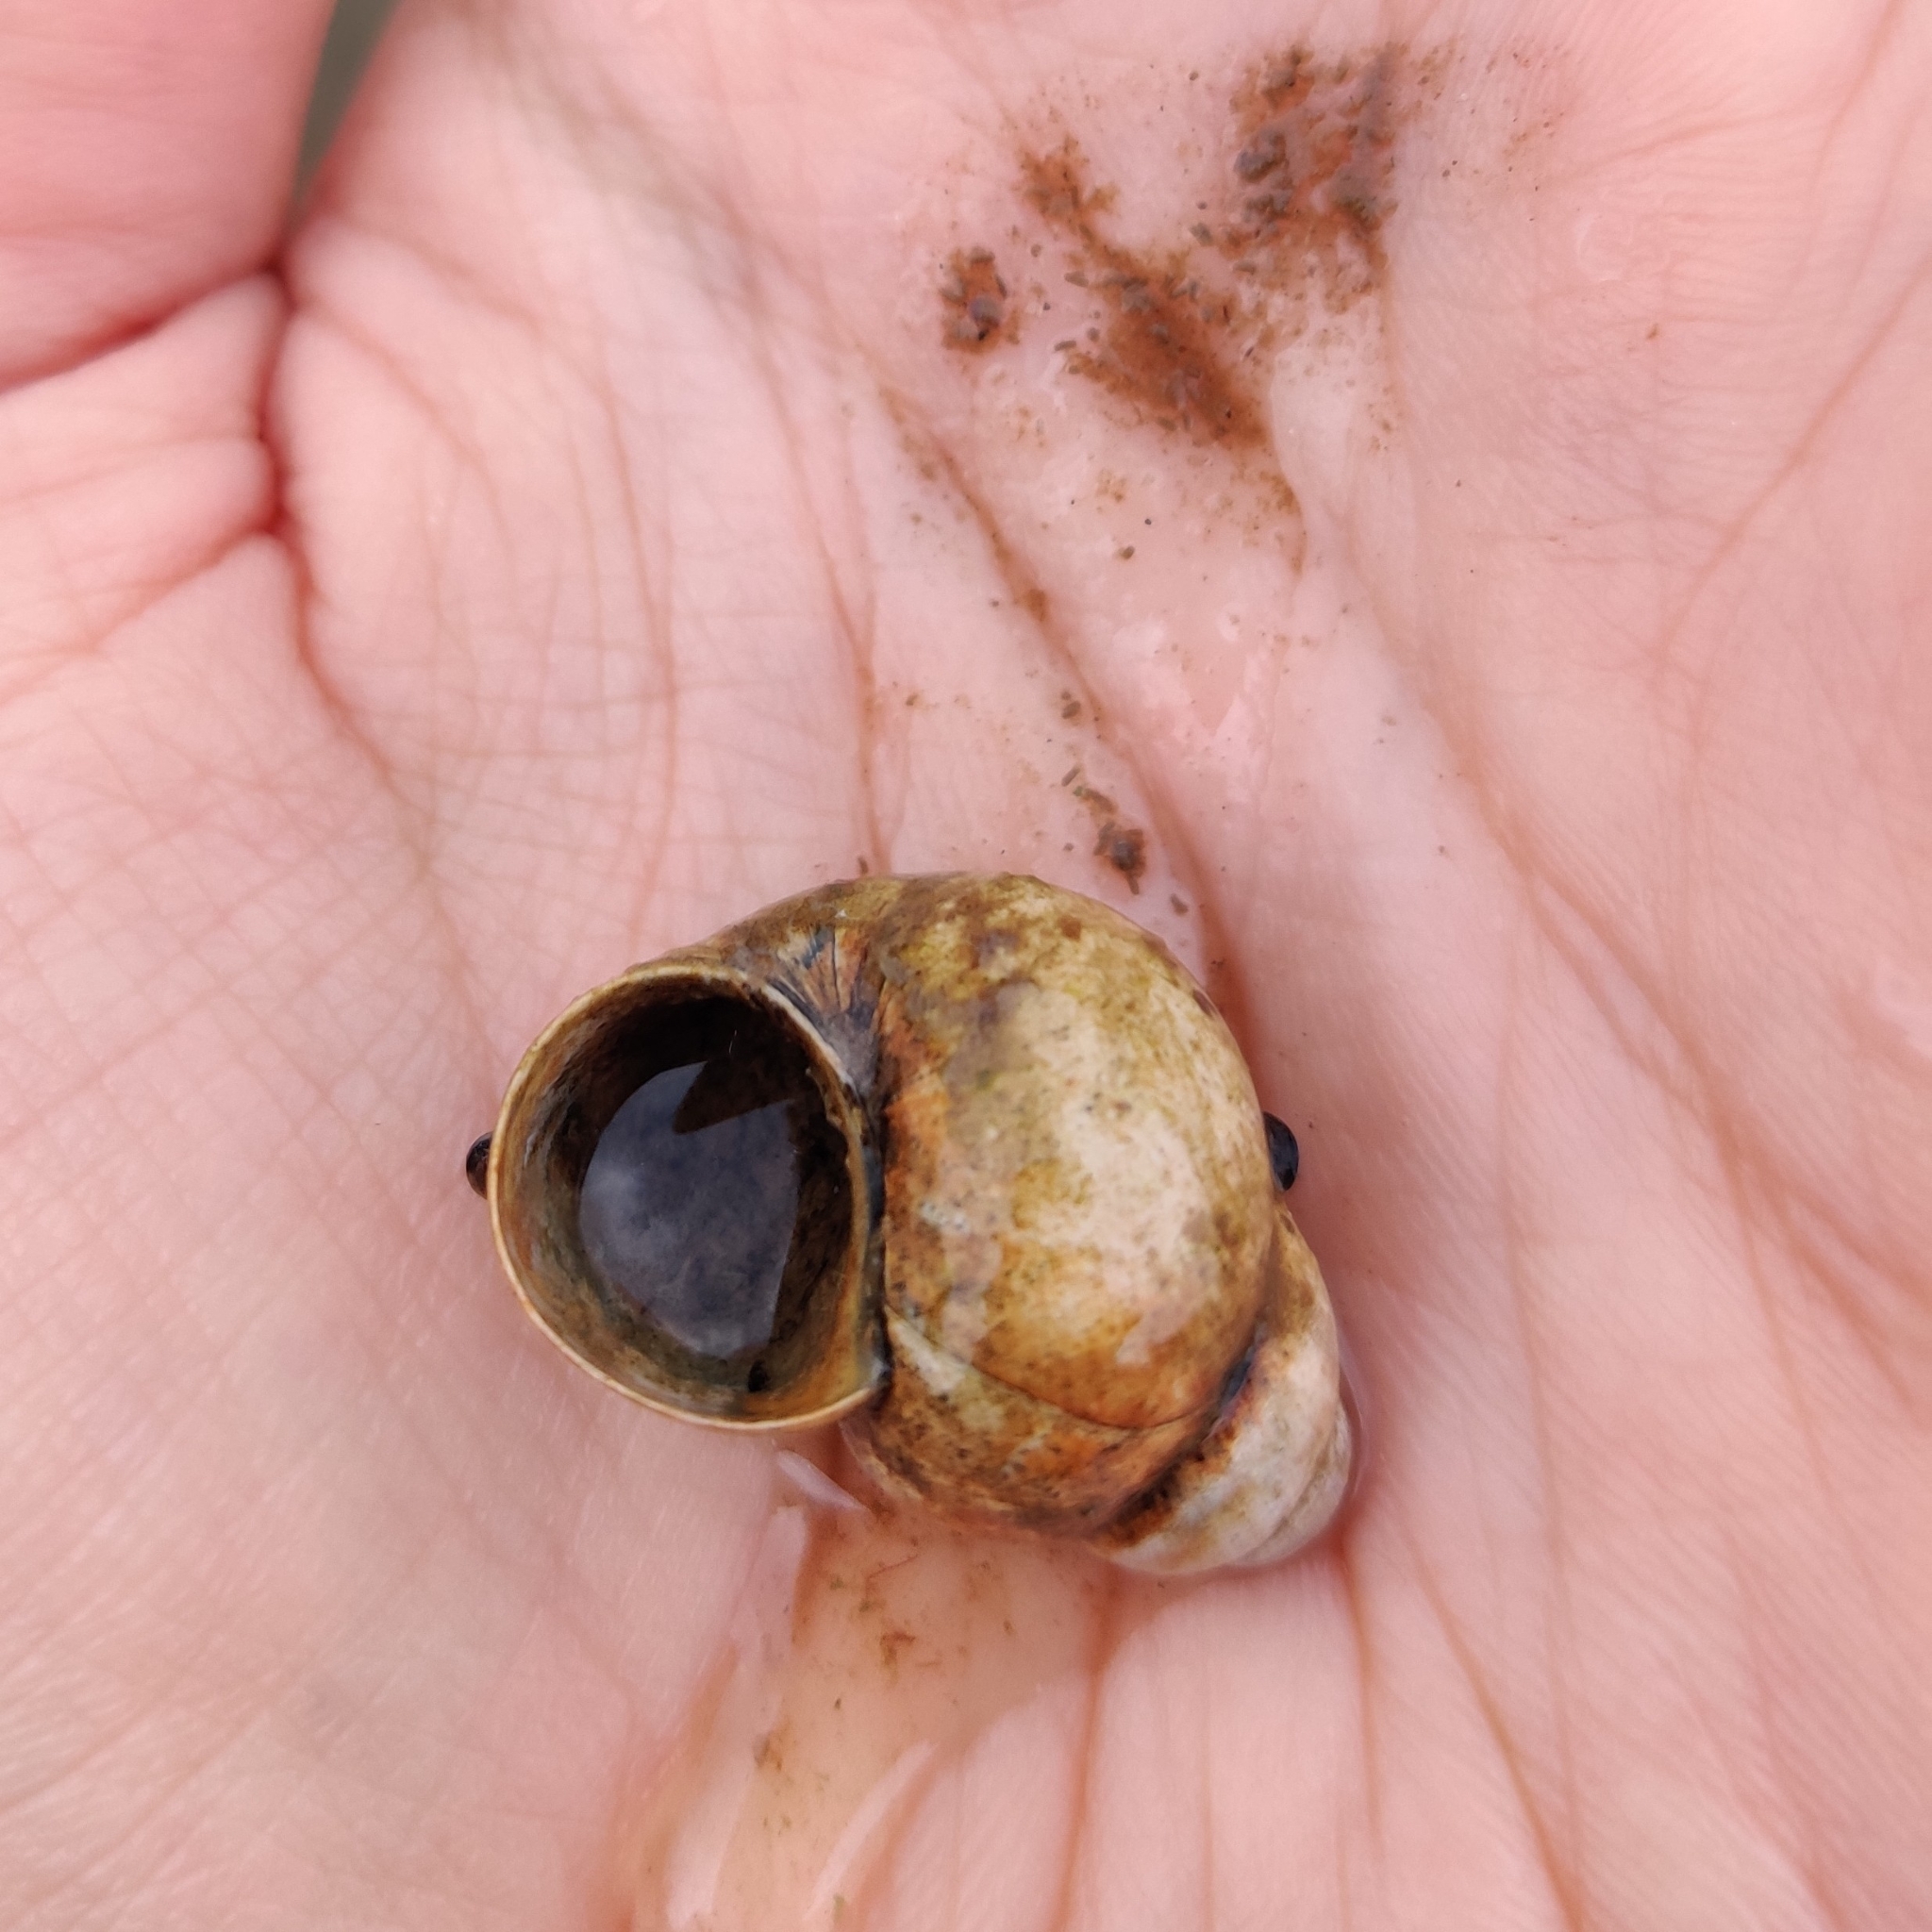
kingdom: Animalia
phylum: Mollusca
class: Gastropoda
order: Architaenioglossa
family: Viviparidae
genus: Viviparus
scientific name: Viviparus viviparus
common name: River snail
